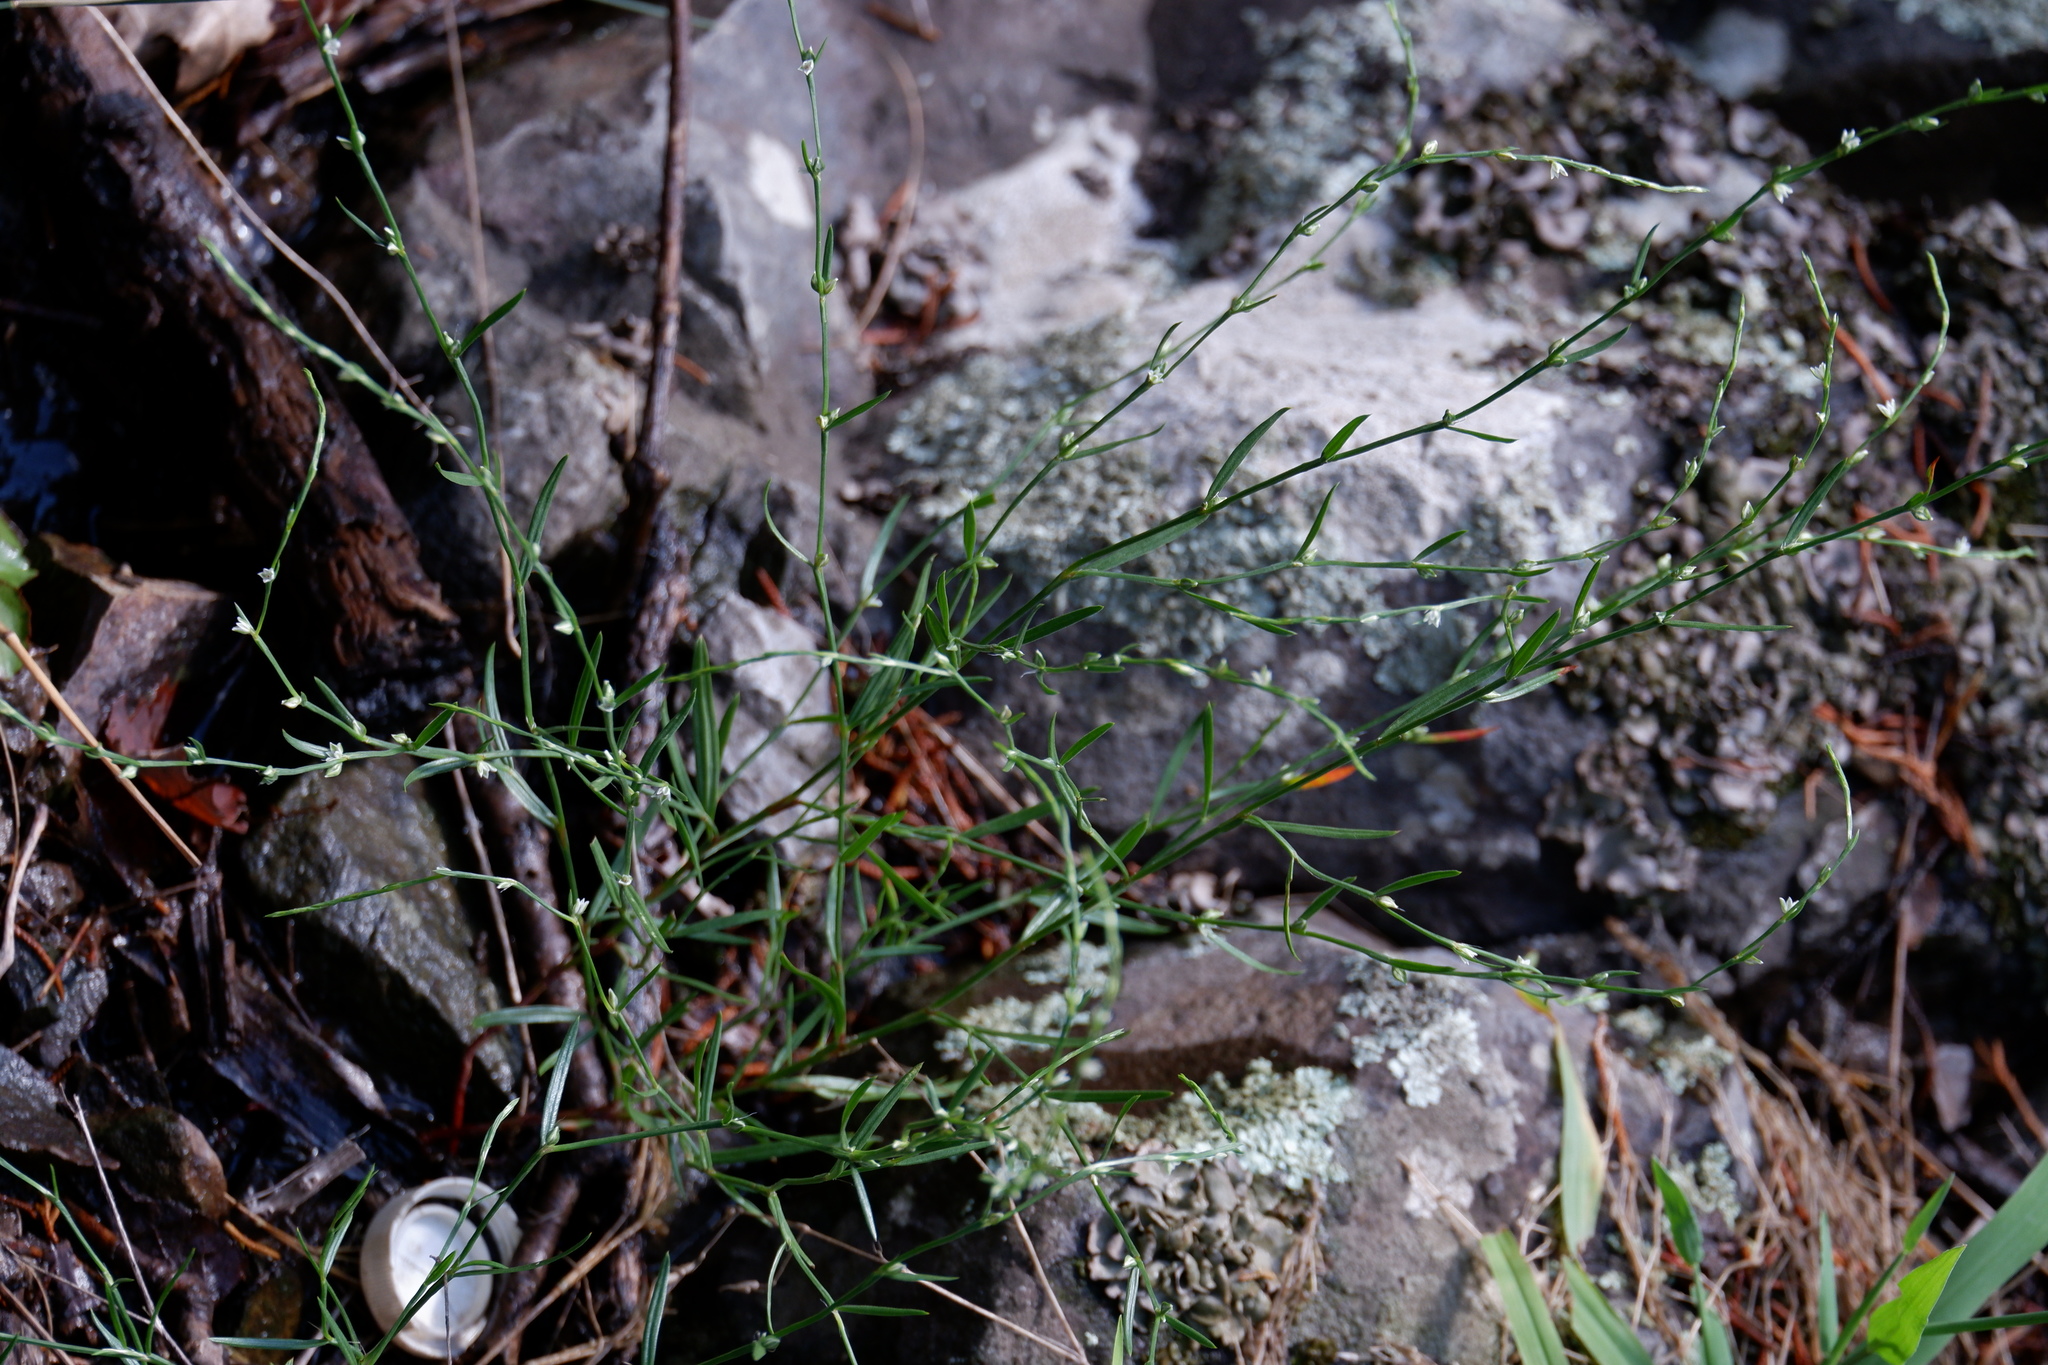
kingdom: Plantae
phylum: Tracheophyta
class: Magnoliopsida
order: Caryophyllales
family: Polygonaceae
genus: Polygonum
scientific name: Polygonum tenue
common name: Pleat-leaved knotweed
